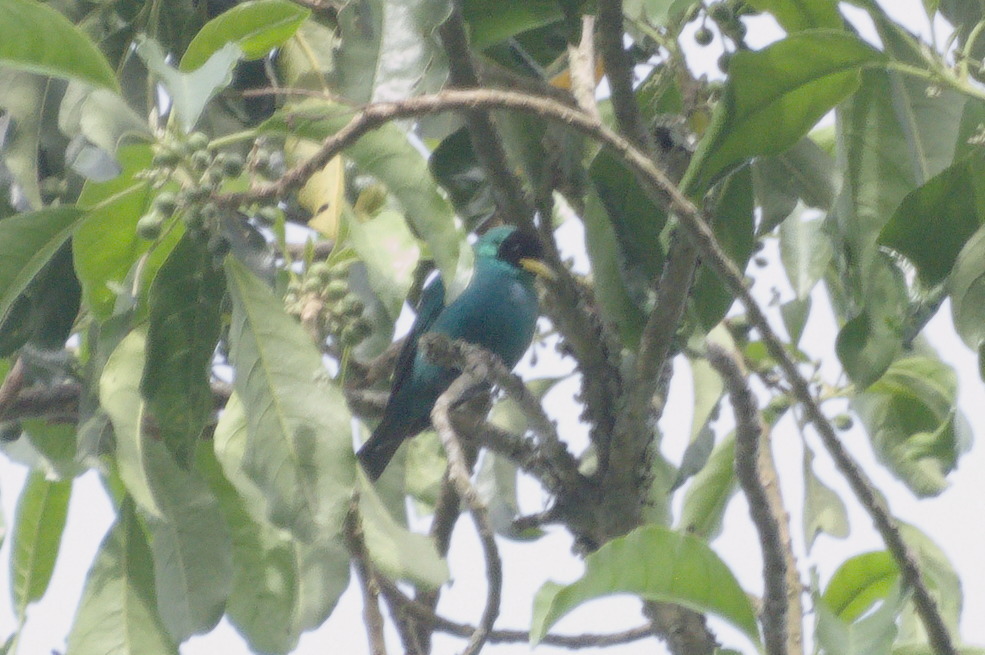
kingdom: Animalia
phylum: Chordata
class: Aves
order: Passeriformes
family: Thraupidae
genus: Chlorophanes
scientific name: Chlorophanes spiza
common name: Green honeycreeper
